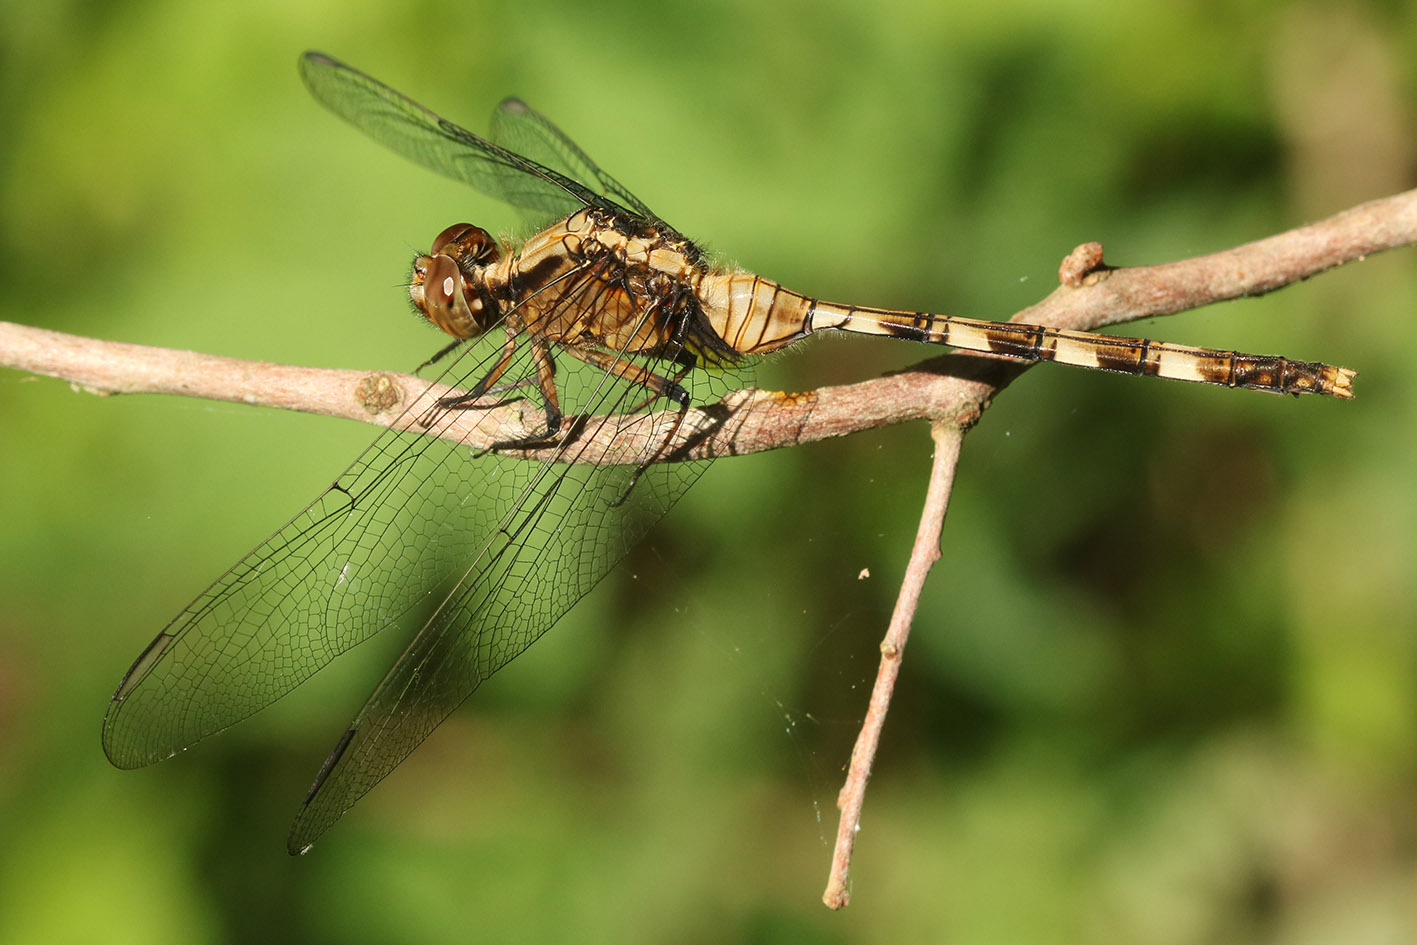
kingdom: Animalia
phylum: Arthropoda
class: Insecta
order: Odonata
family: Libellulidae
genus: Erythemis
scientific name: Erythemis plebeja
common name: Pin-tailed pondhawk
